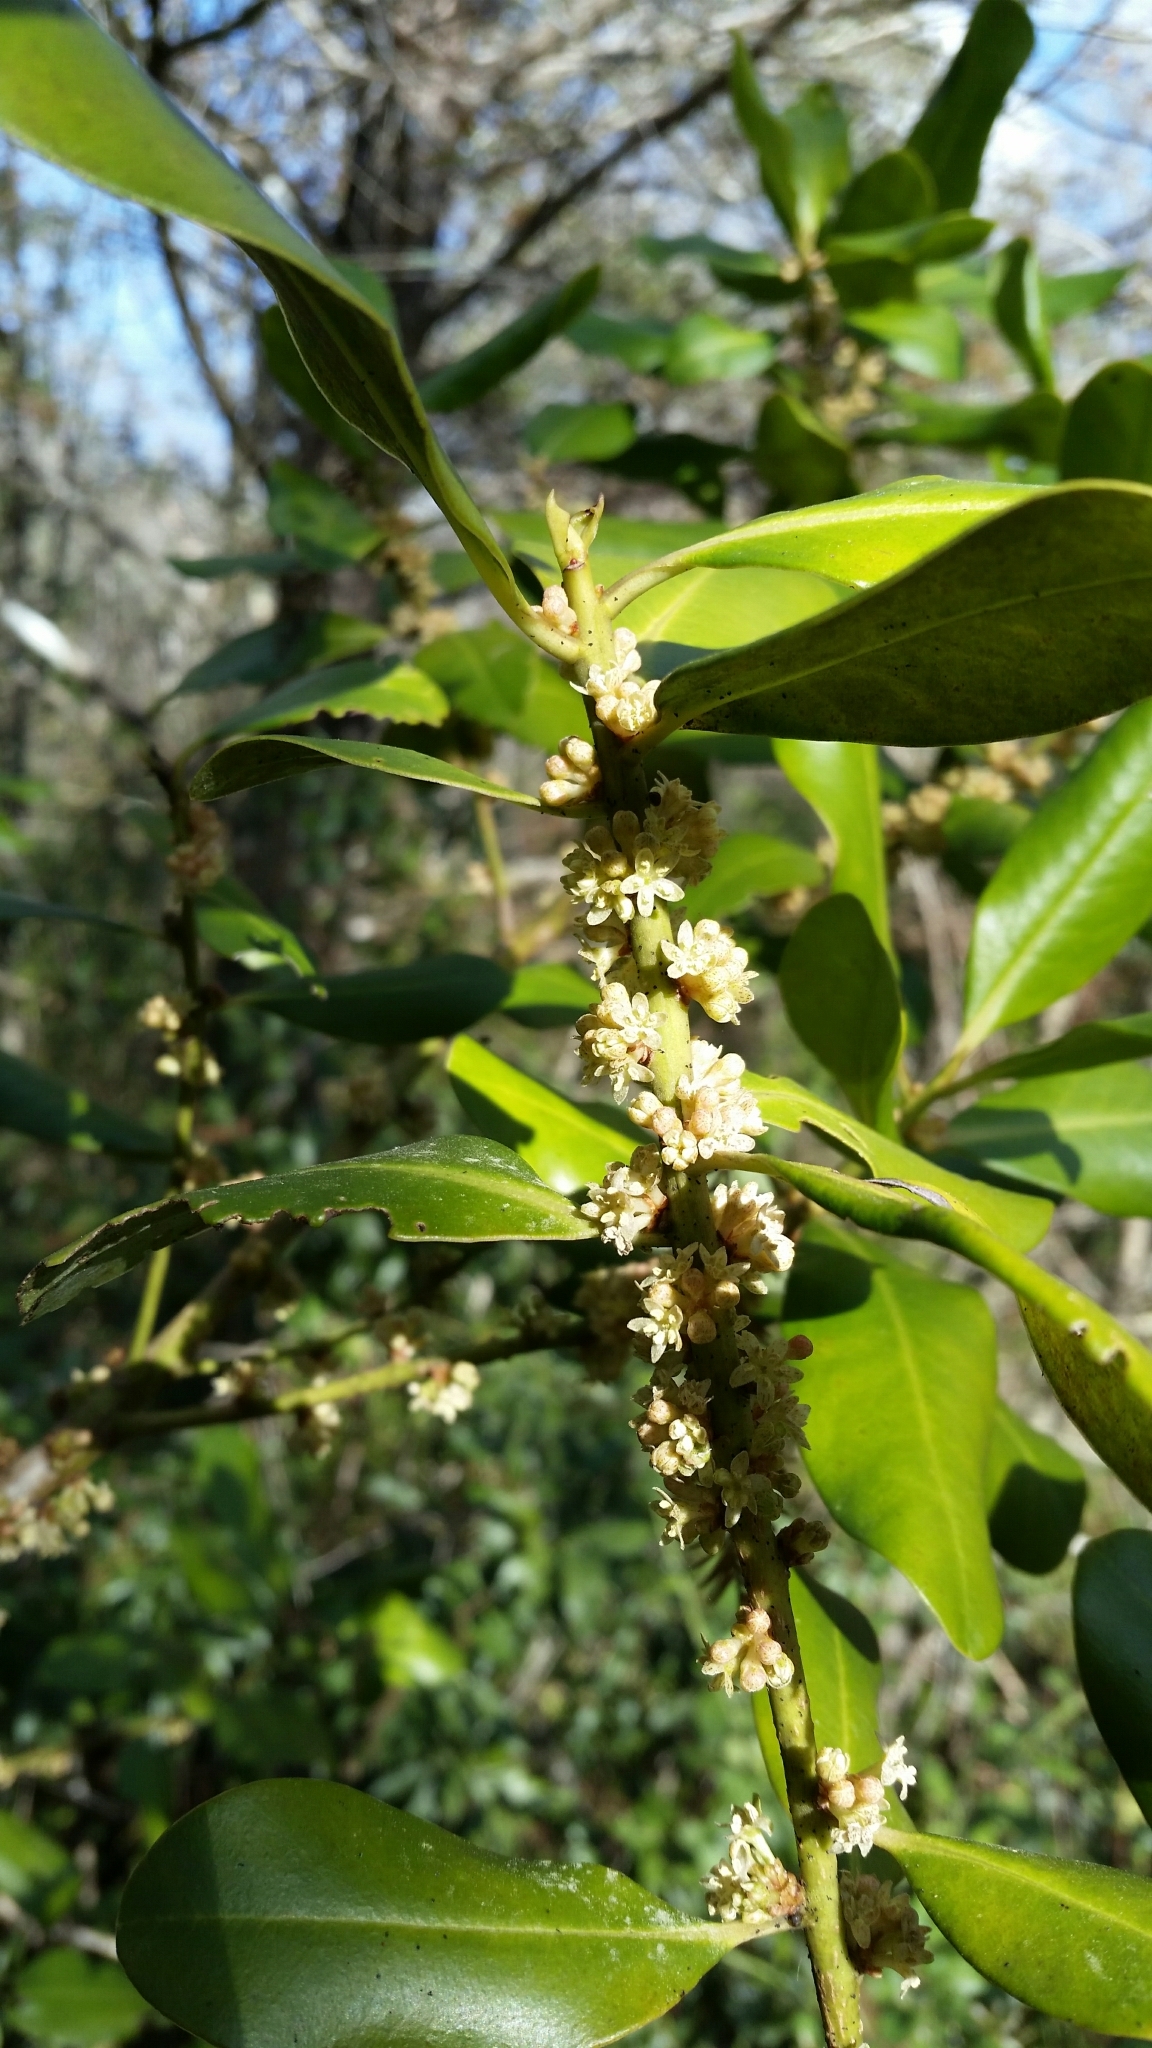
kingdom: Plantae
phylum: Tracheophyta
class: Magnoliopsida
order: Ericales
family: Primulaceae
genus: Myrsine
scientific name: Myrsine floridana
